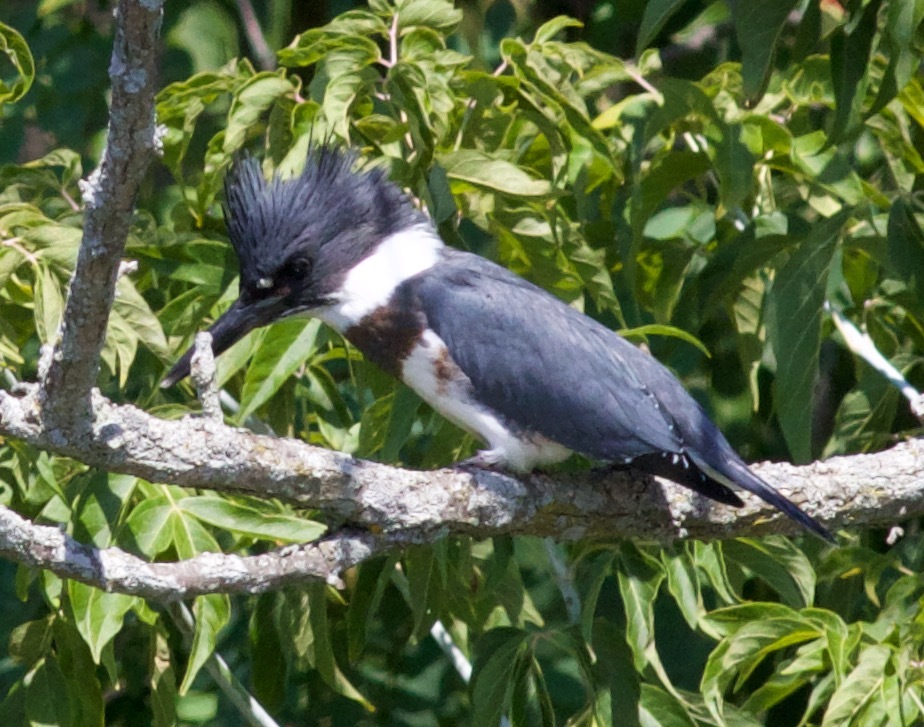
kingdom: Animalia
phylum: Chordata
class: Aves
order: Coraciiformes
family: Alcedinidae
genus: Megaceryle
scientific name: Megaceryle alcyon
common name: Belted kingfisher
